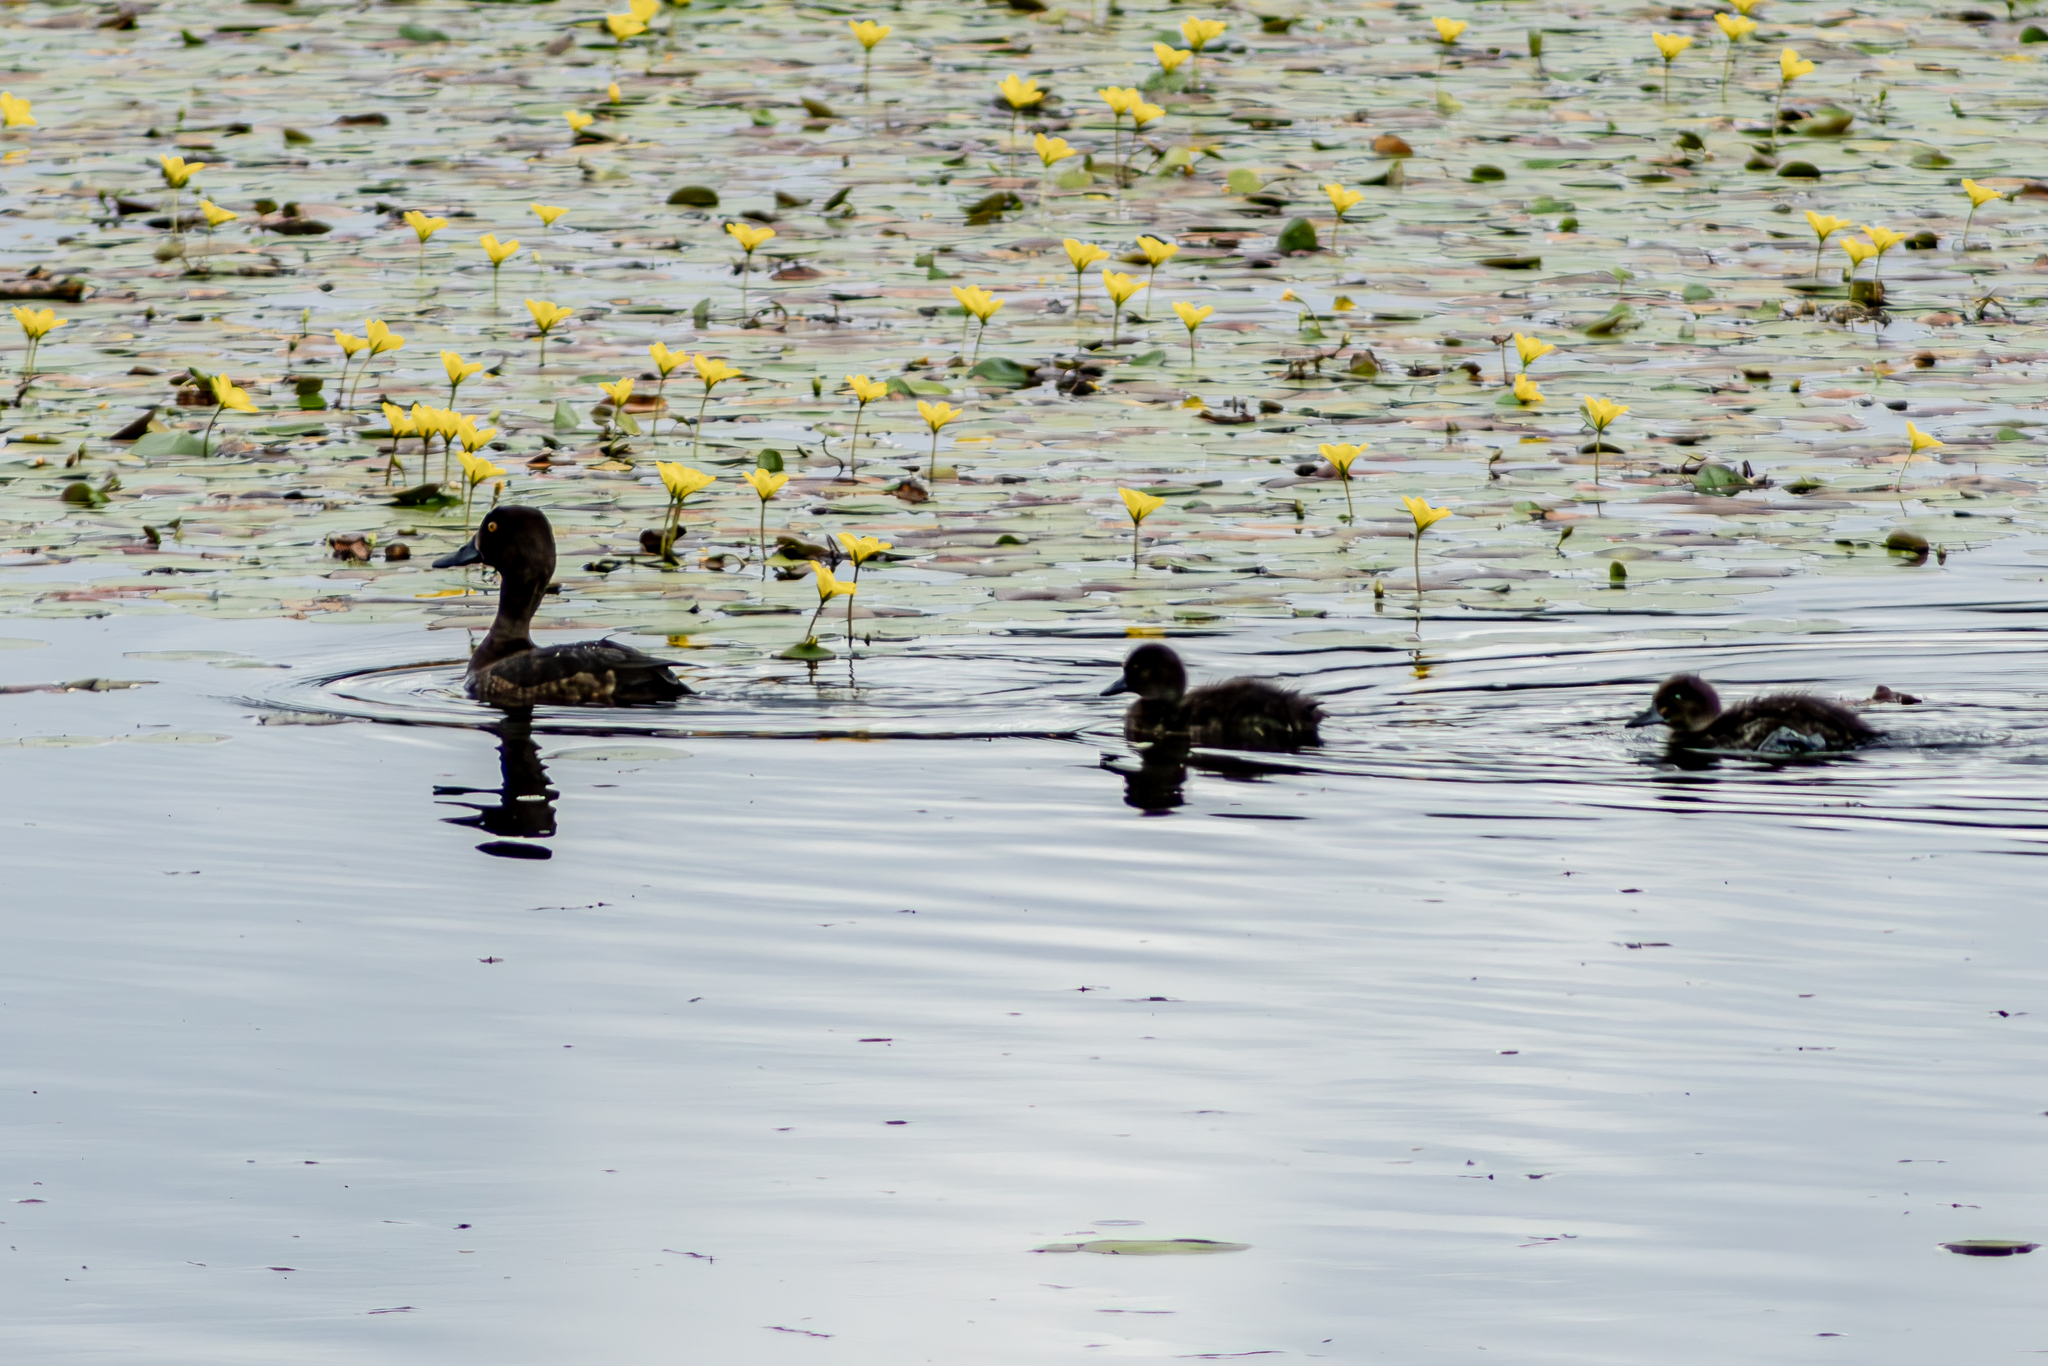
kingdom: Animalia
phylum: Chordata
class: Aves
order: Anseriformes
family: Anatidae
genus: Aythya
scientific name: Aythya fuligula
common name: Tufted duck
